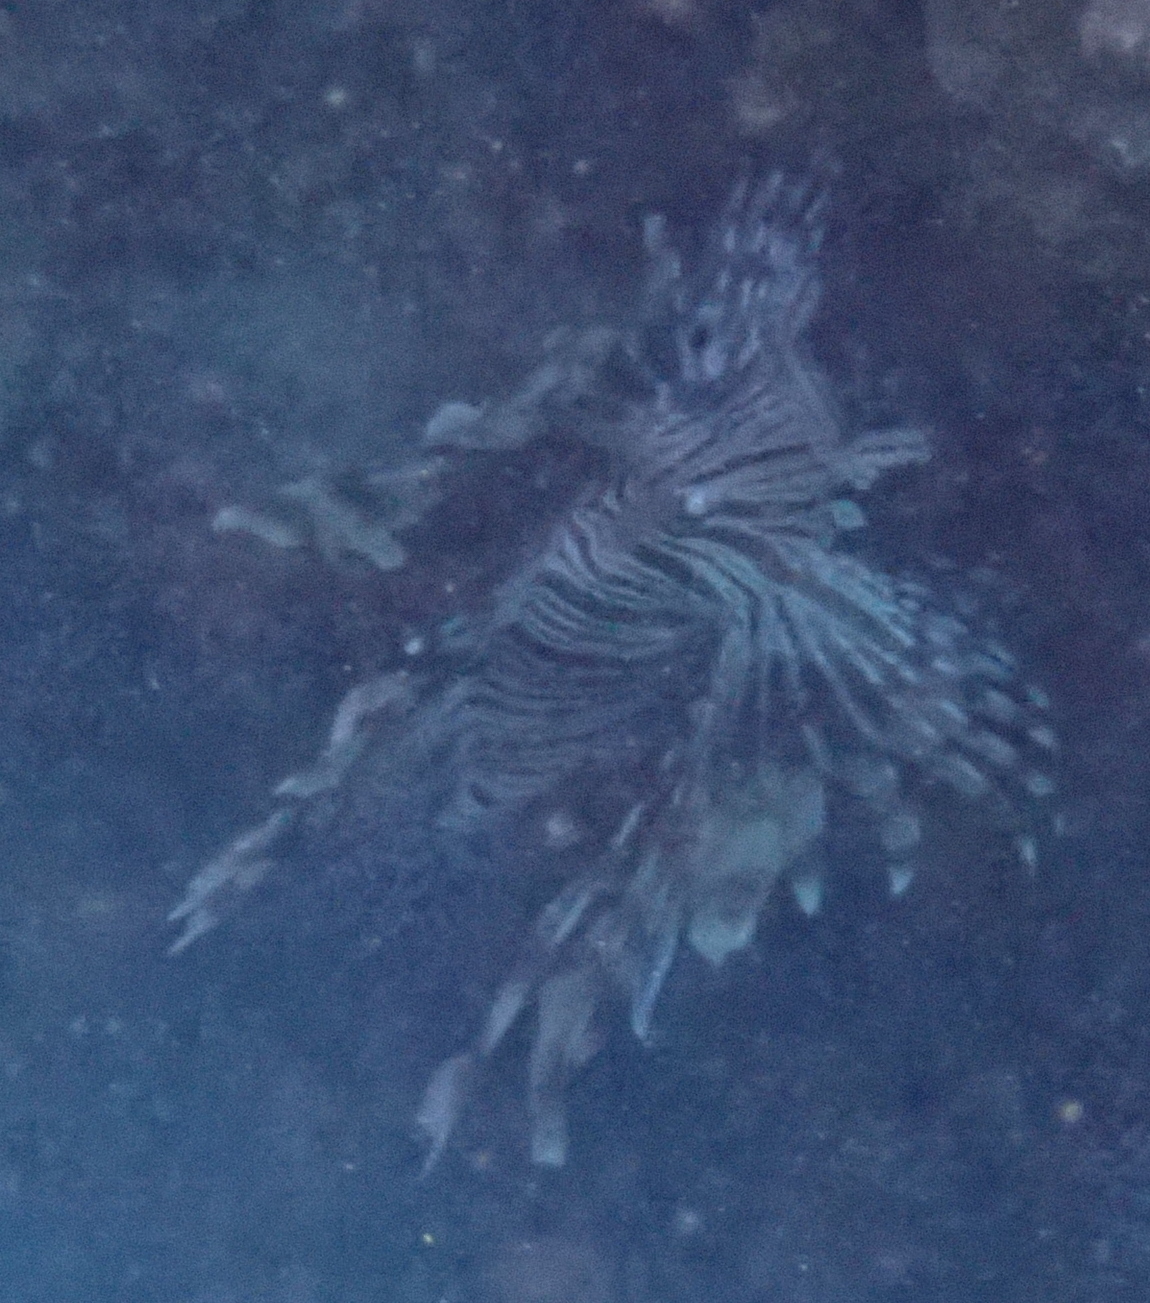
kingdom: Animalia
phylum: Chordata
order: Scorpaeniformes
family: Scorpaenidae
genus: Pterois
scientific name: Pterois miles
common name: Devil firefish
